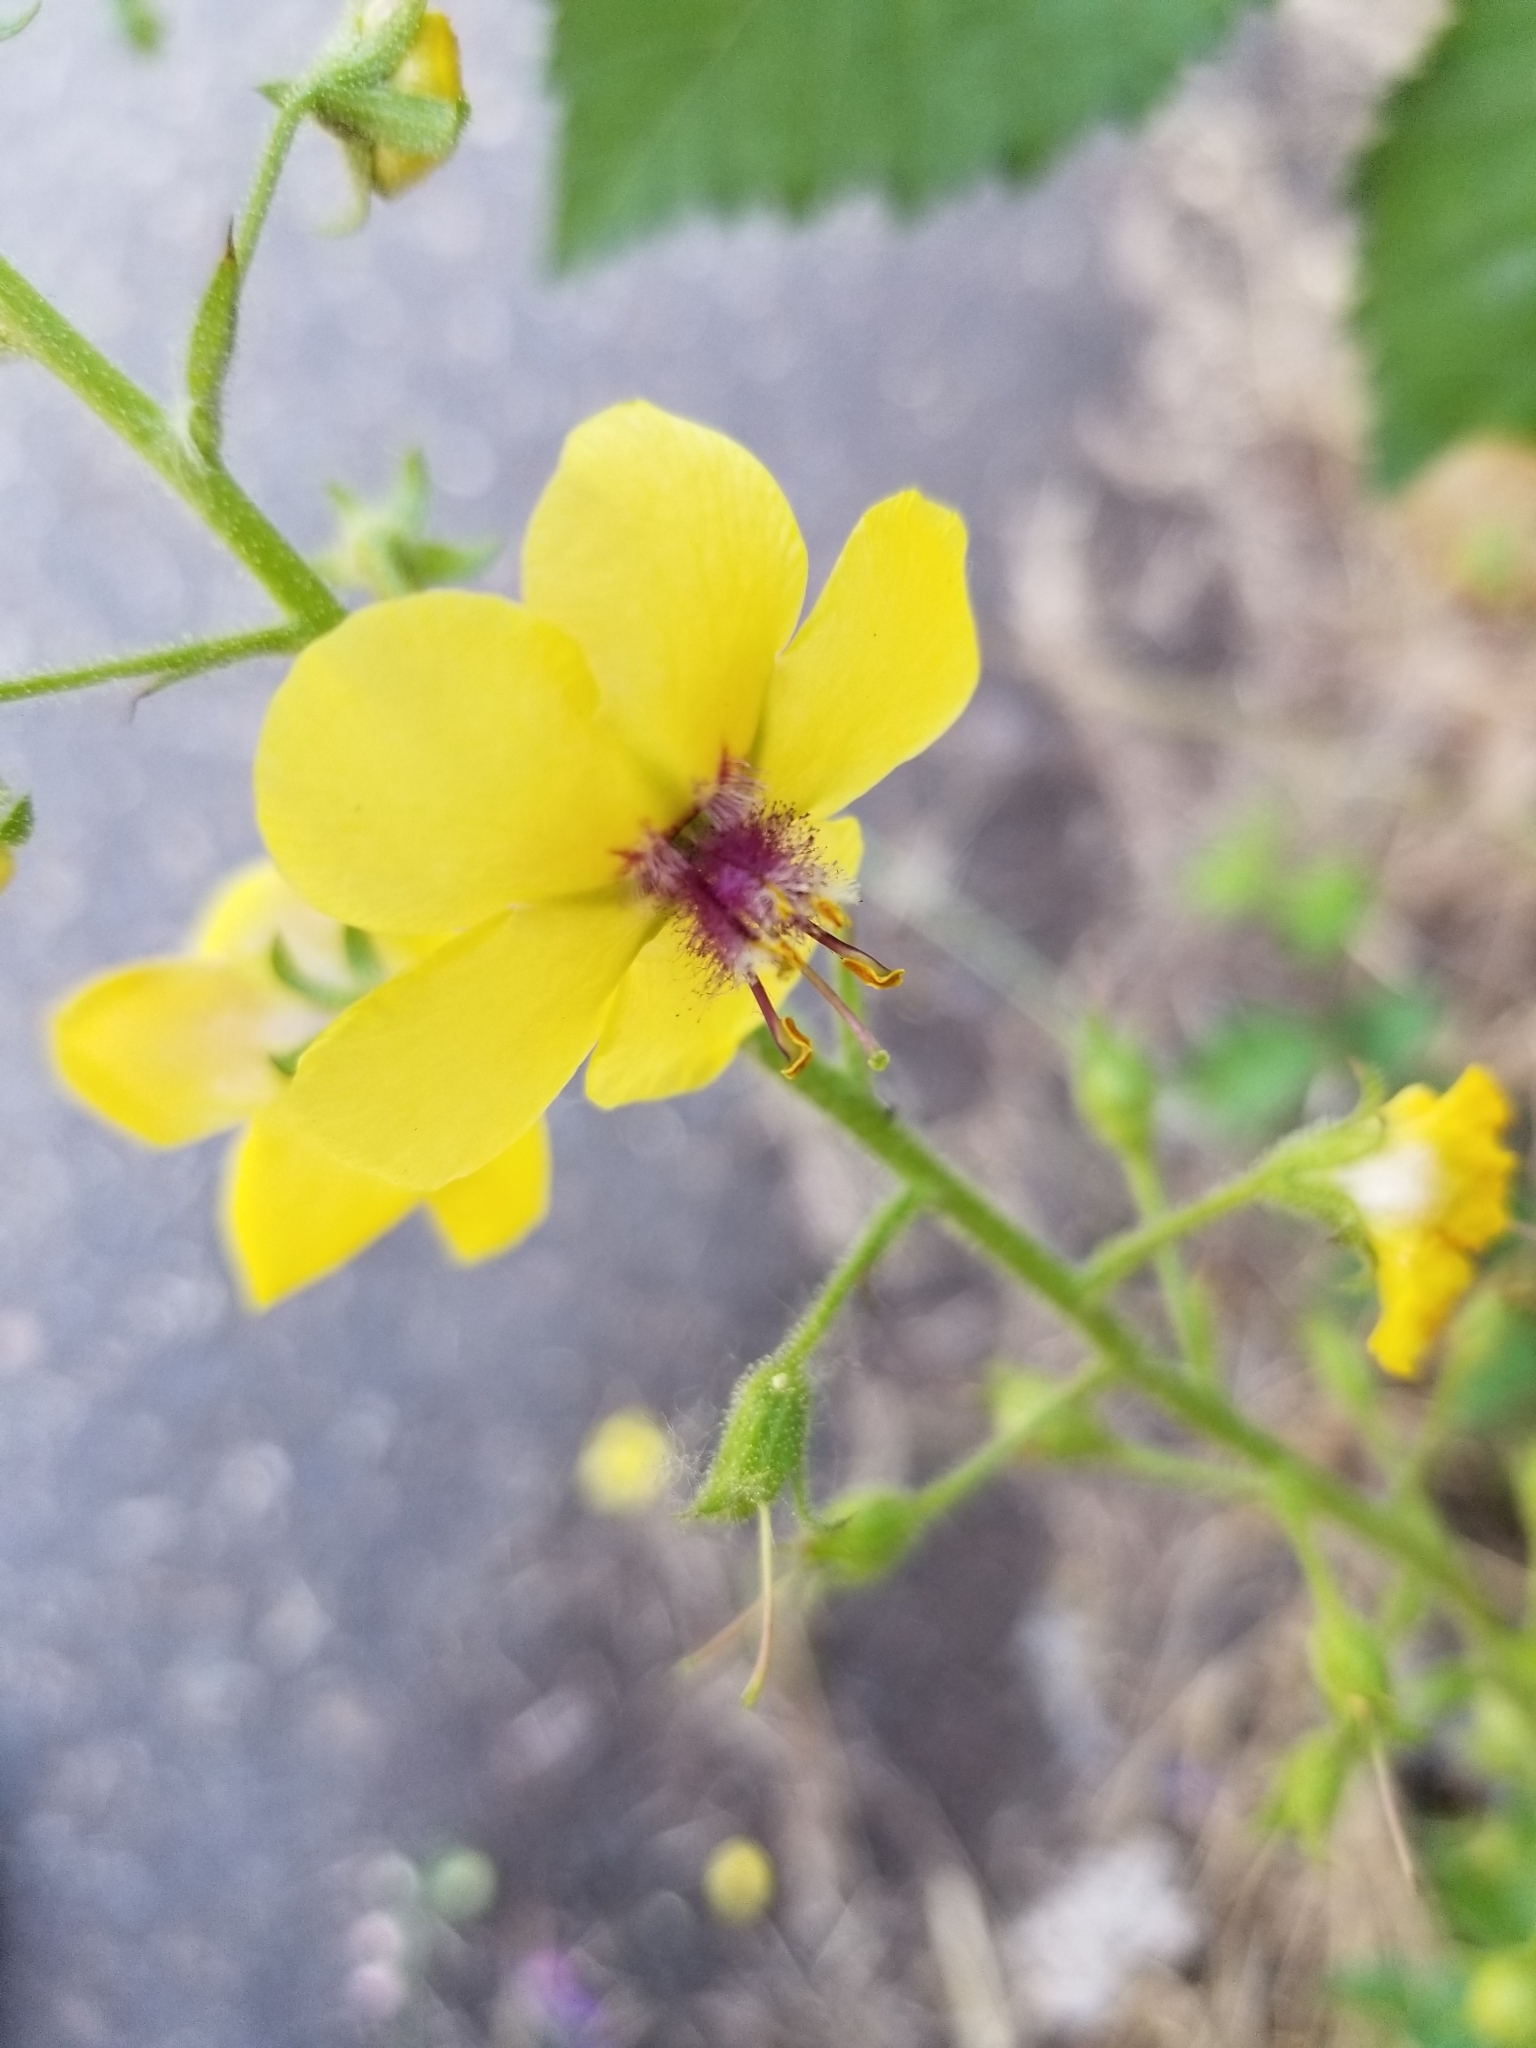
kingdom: Plantae
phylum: Tracheophyta
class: Magnoliopsida
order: Lamiales
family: Scrophulariaceae
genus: Verbascum
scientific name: Verbascum blattaria
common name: Moth mullein
